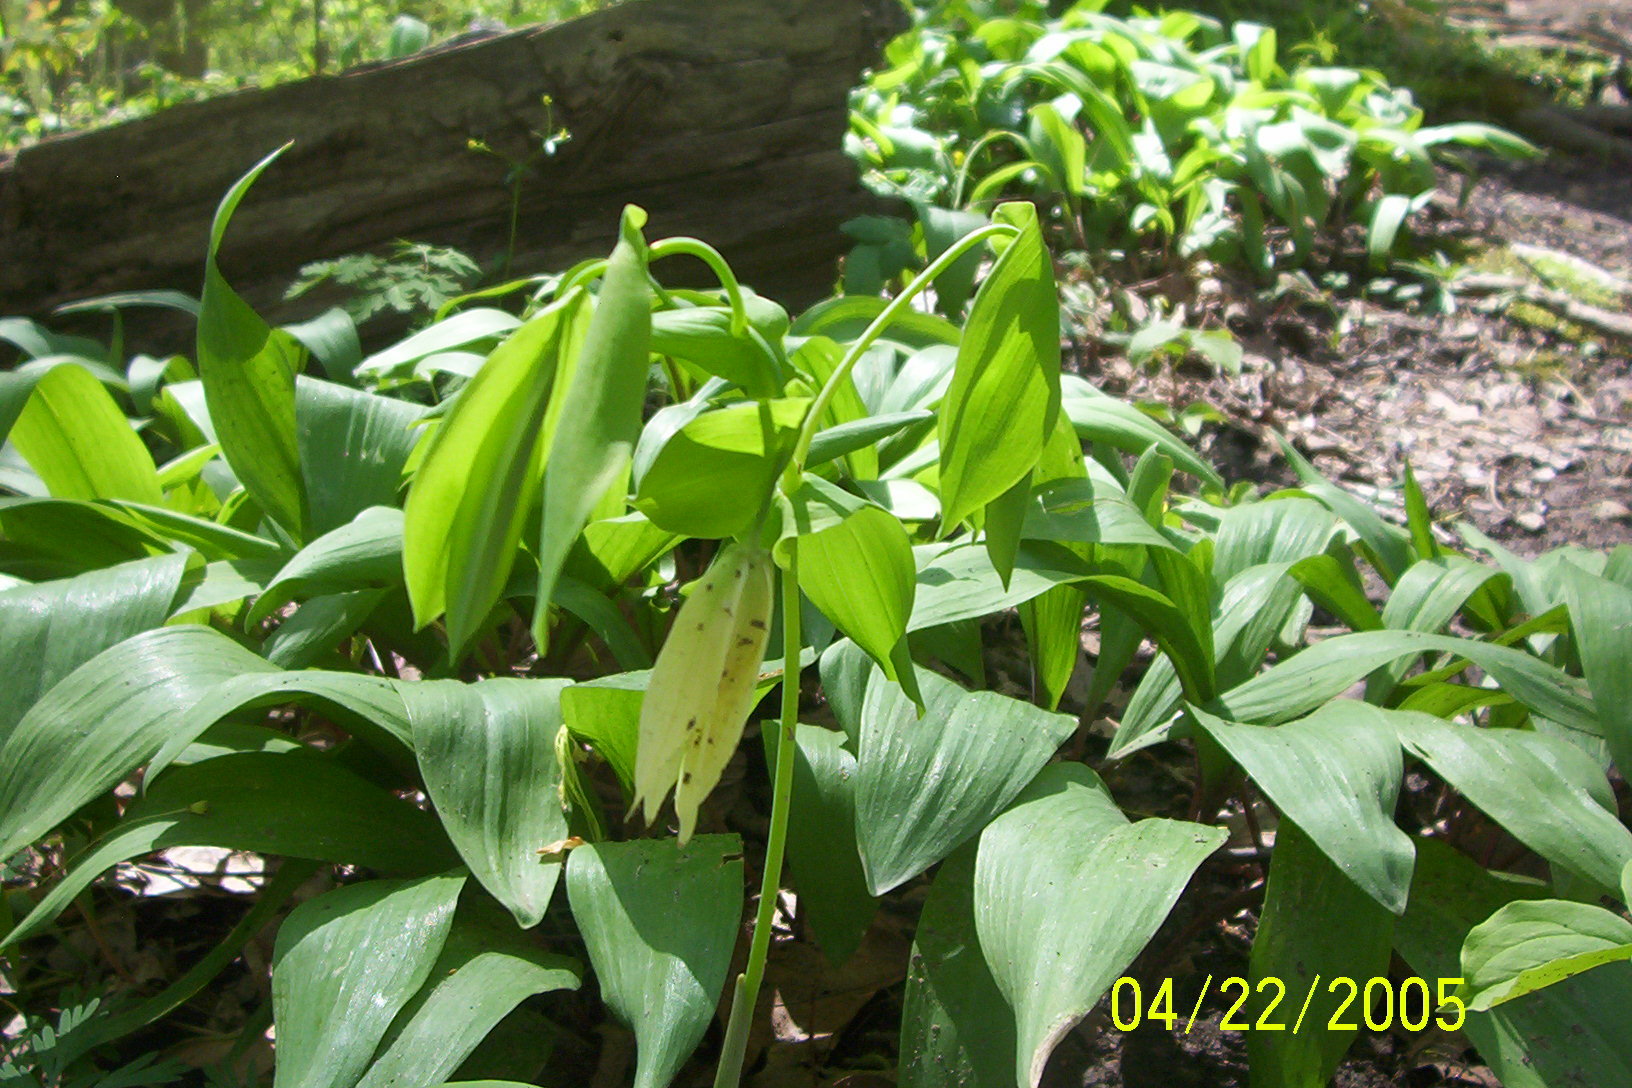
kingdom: Plantae
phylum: Tracheophyta
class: Liliopsida
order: Liliales
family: Colchicaceae
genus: Uvularia
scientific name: Uvularia grandiflora
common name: Bellwort
